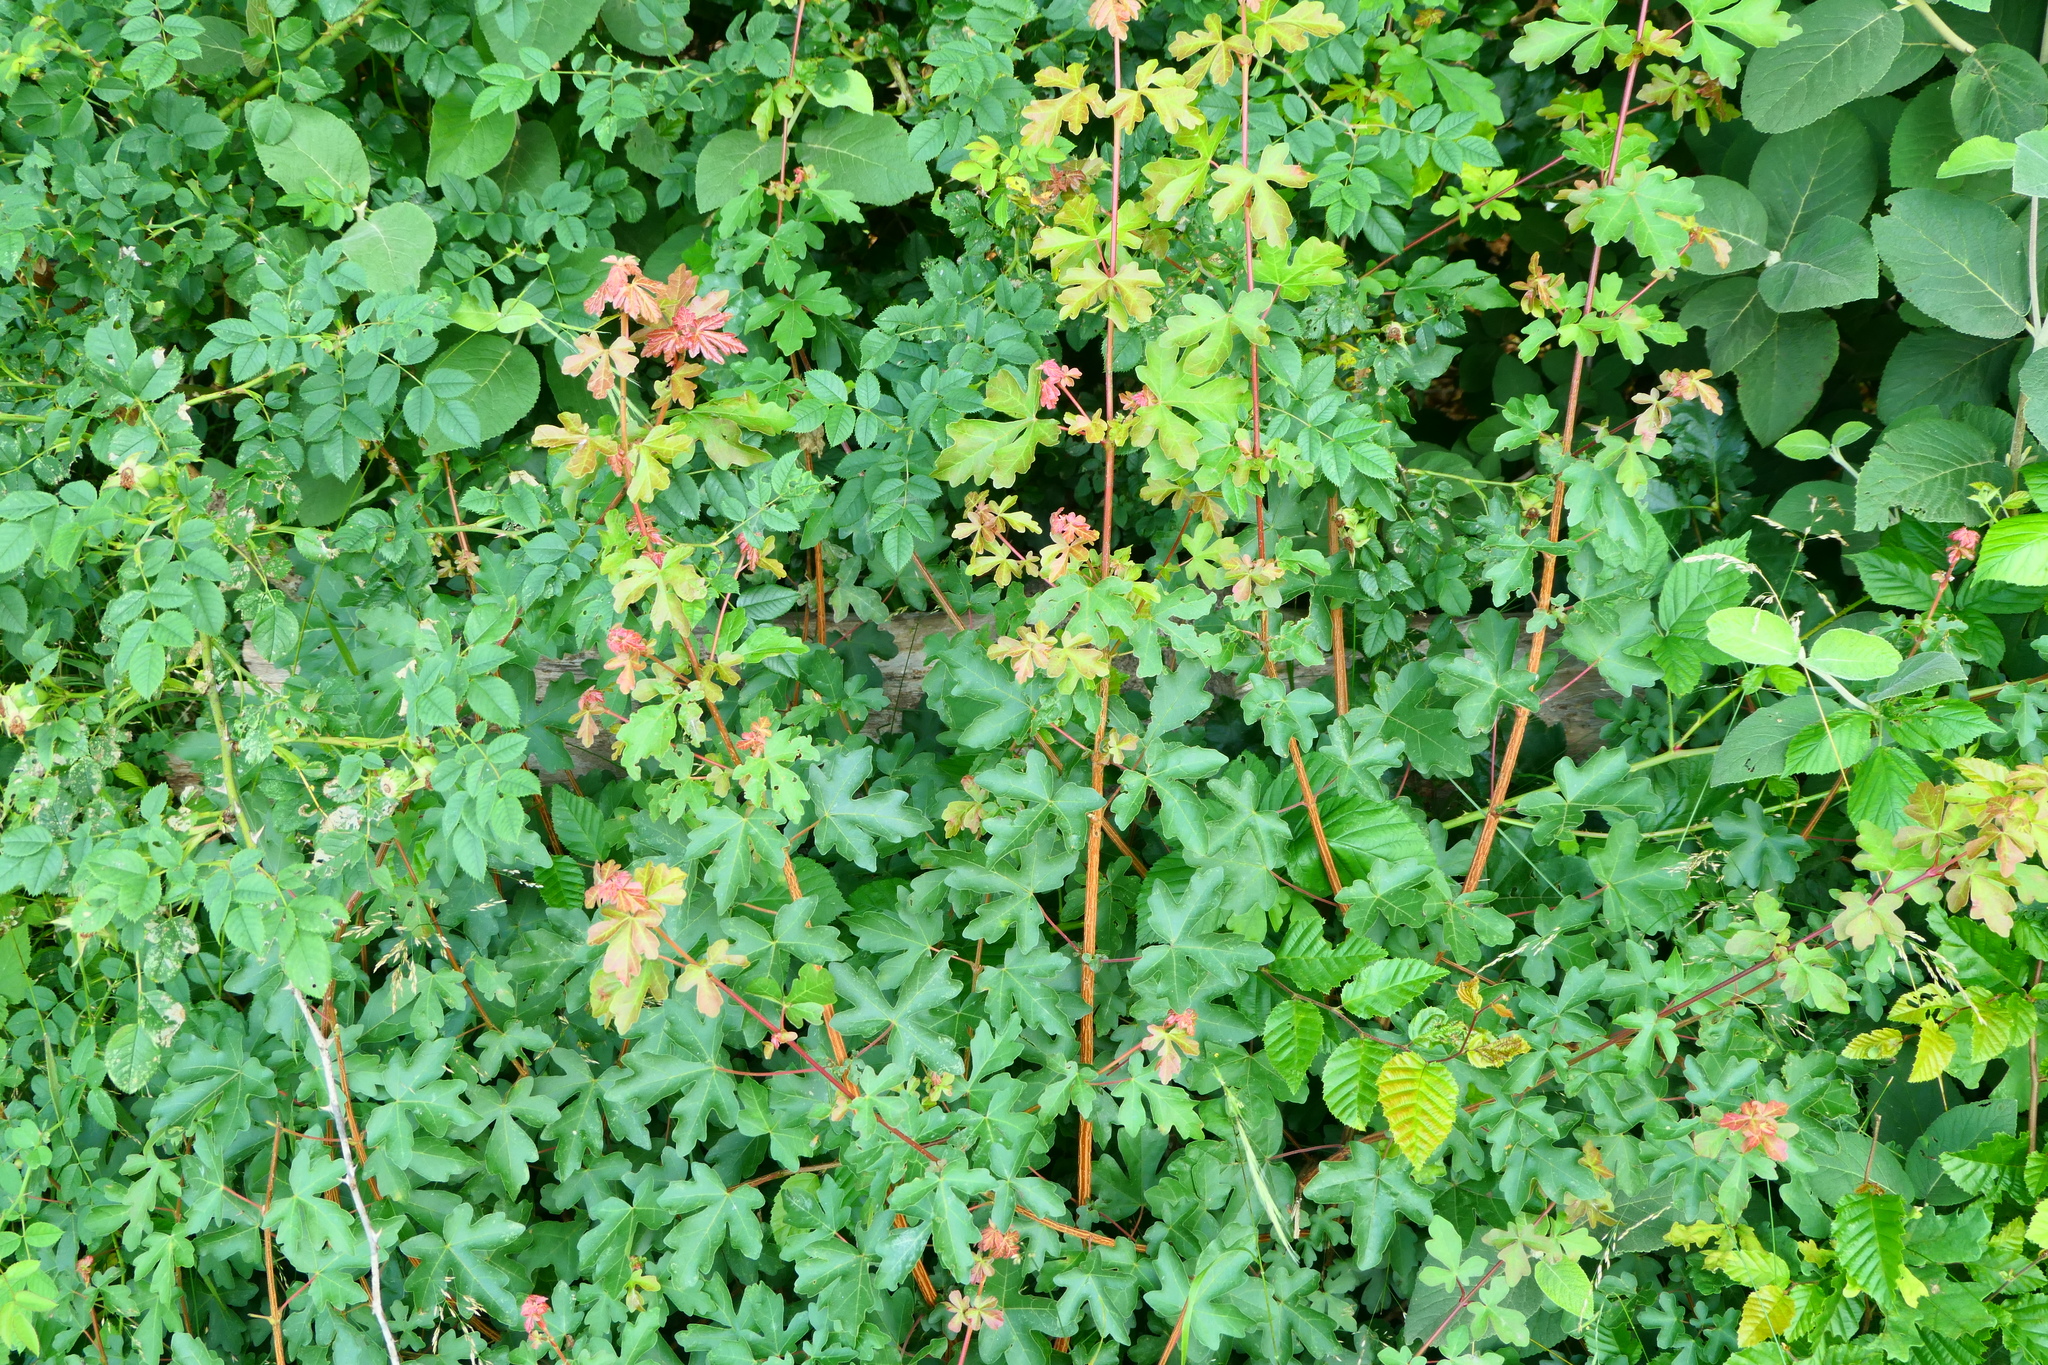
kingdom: Plantae
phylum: Tracheophyta
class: Magnoliopsida
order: Sapindales
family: Sapindaceae
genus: Acer
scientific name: Acer campestre
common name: Field maple
